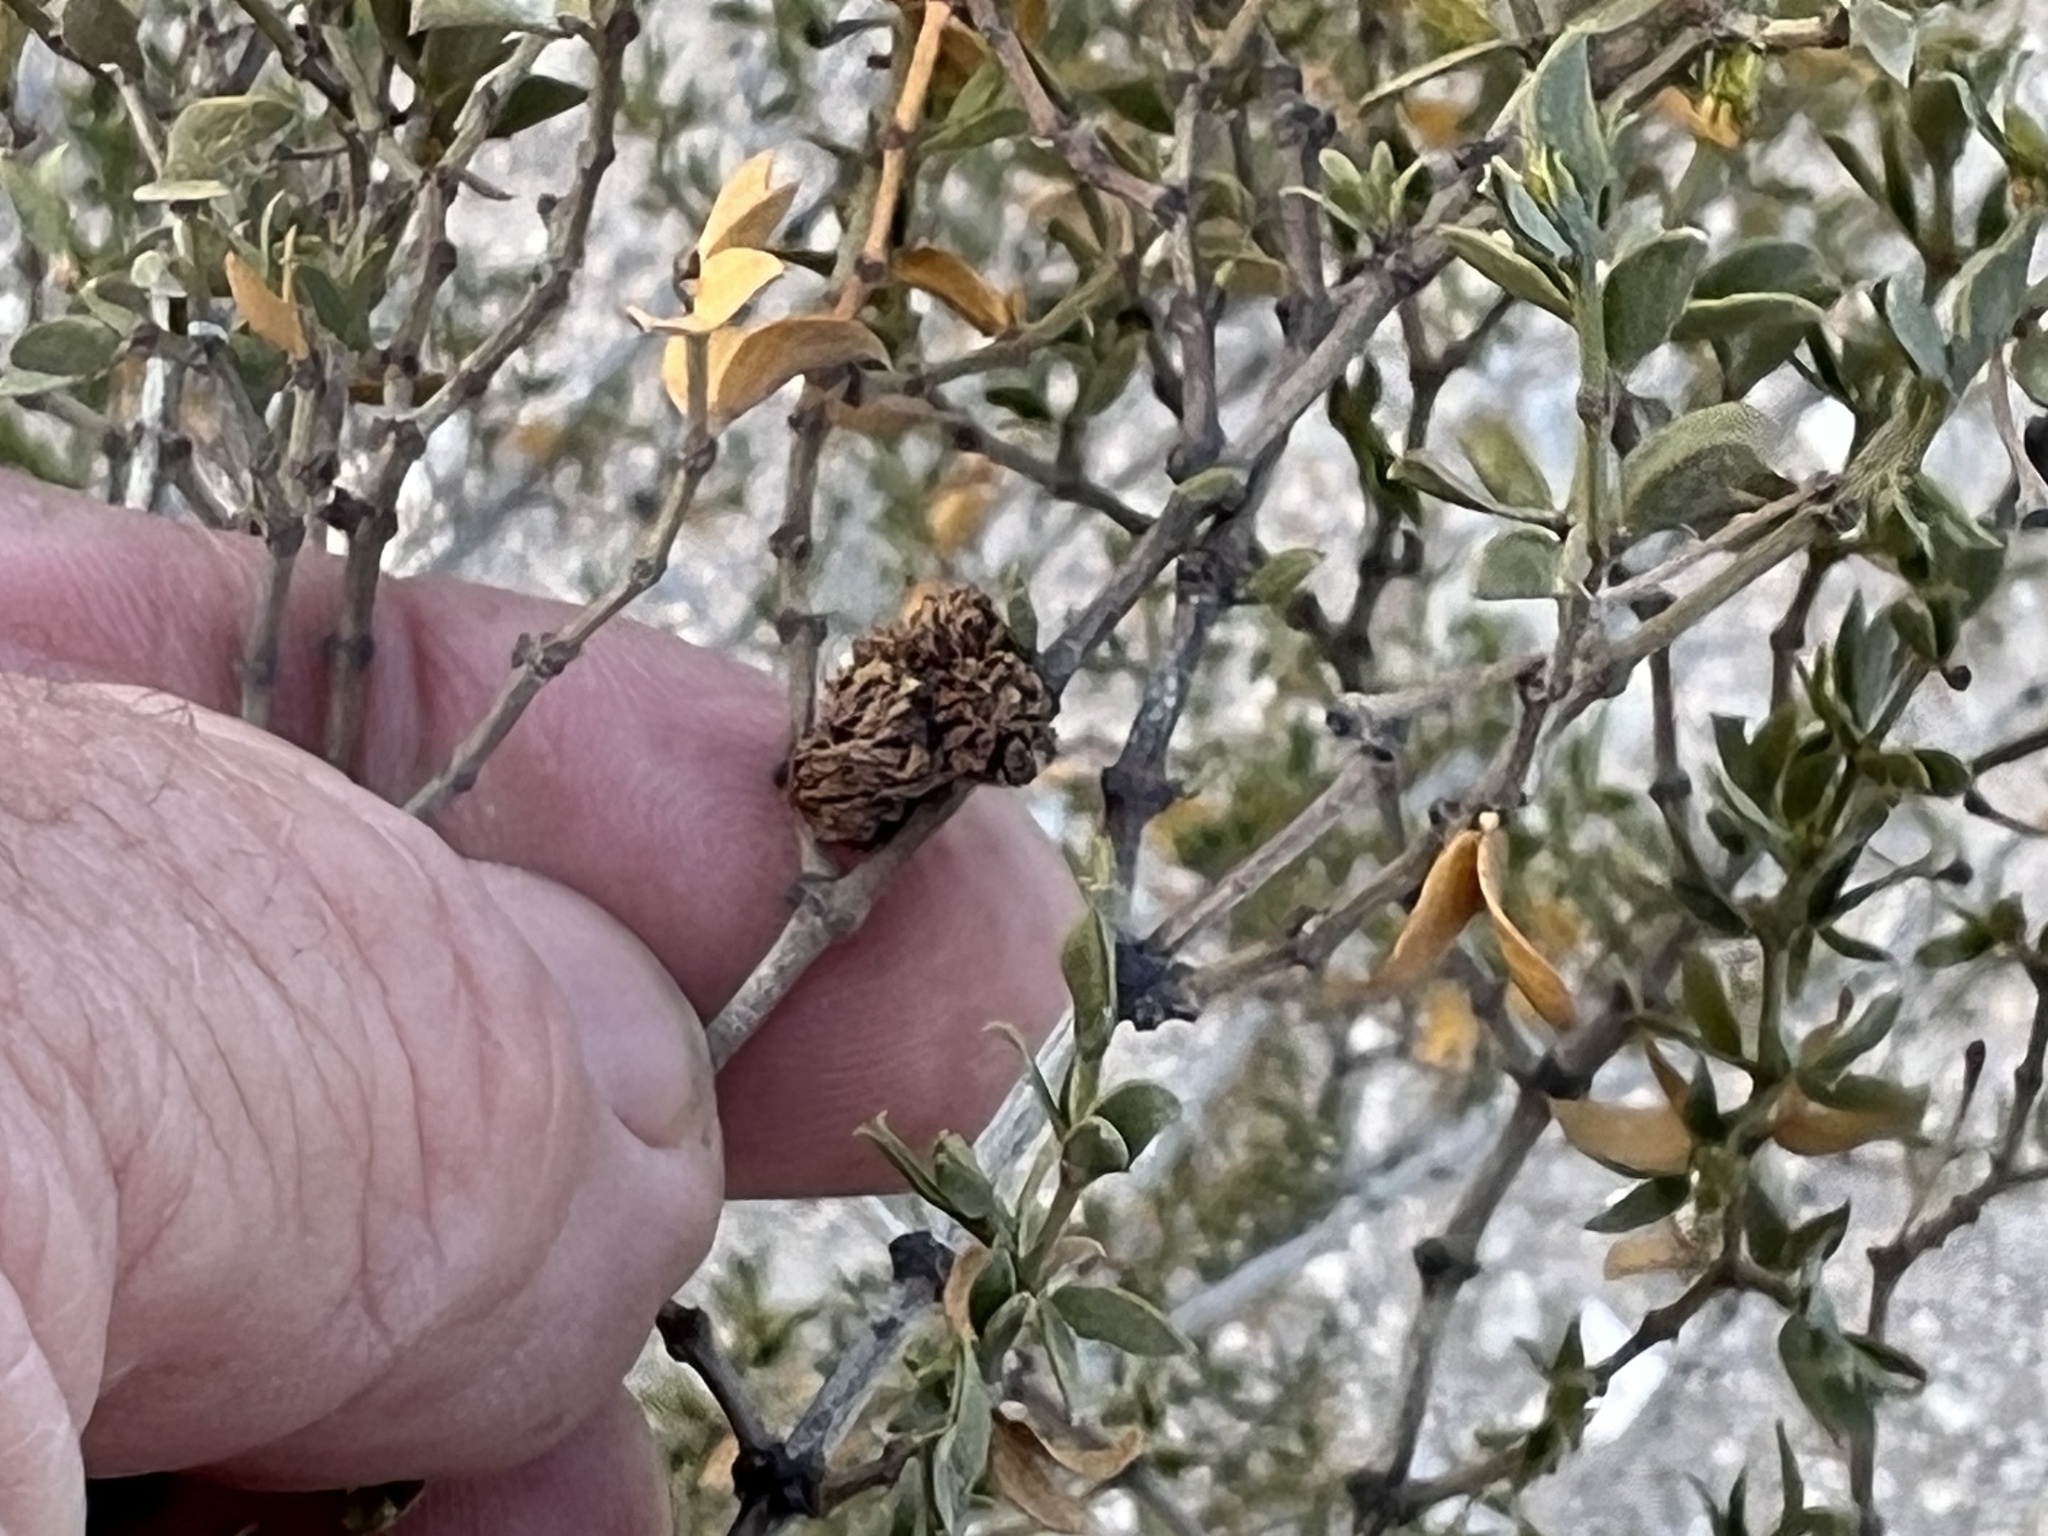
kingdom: Animalia
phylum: Arthropoda
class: Insecta
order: Diptera
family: Cecidomyiidae
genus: Asphondylia
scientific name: Asphondylia foliosa
